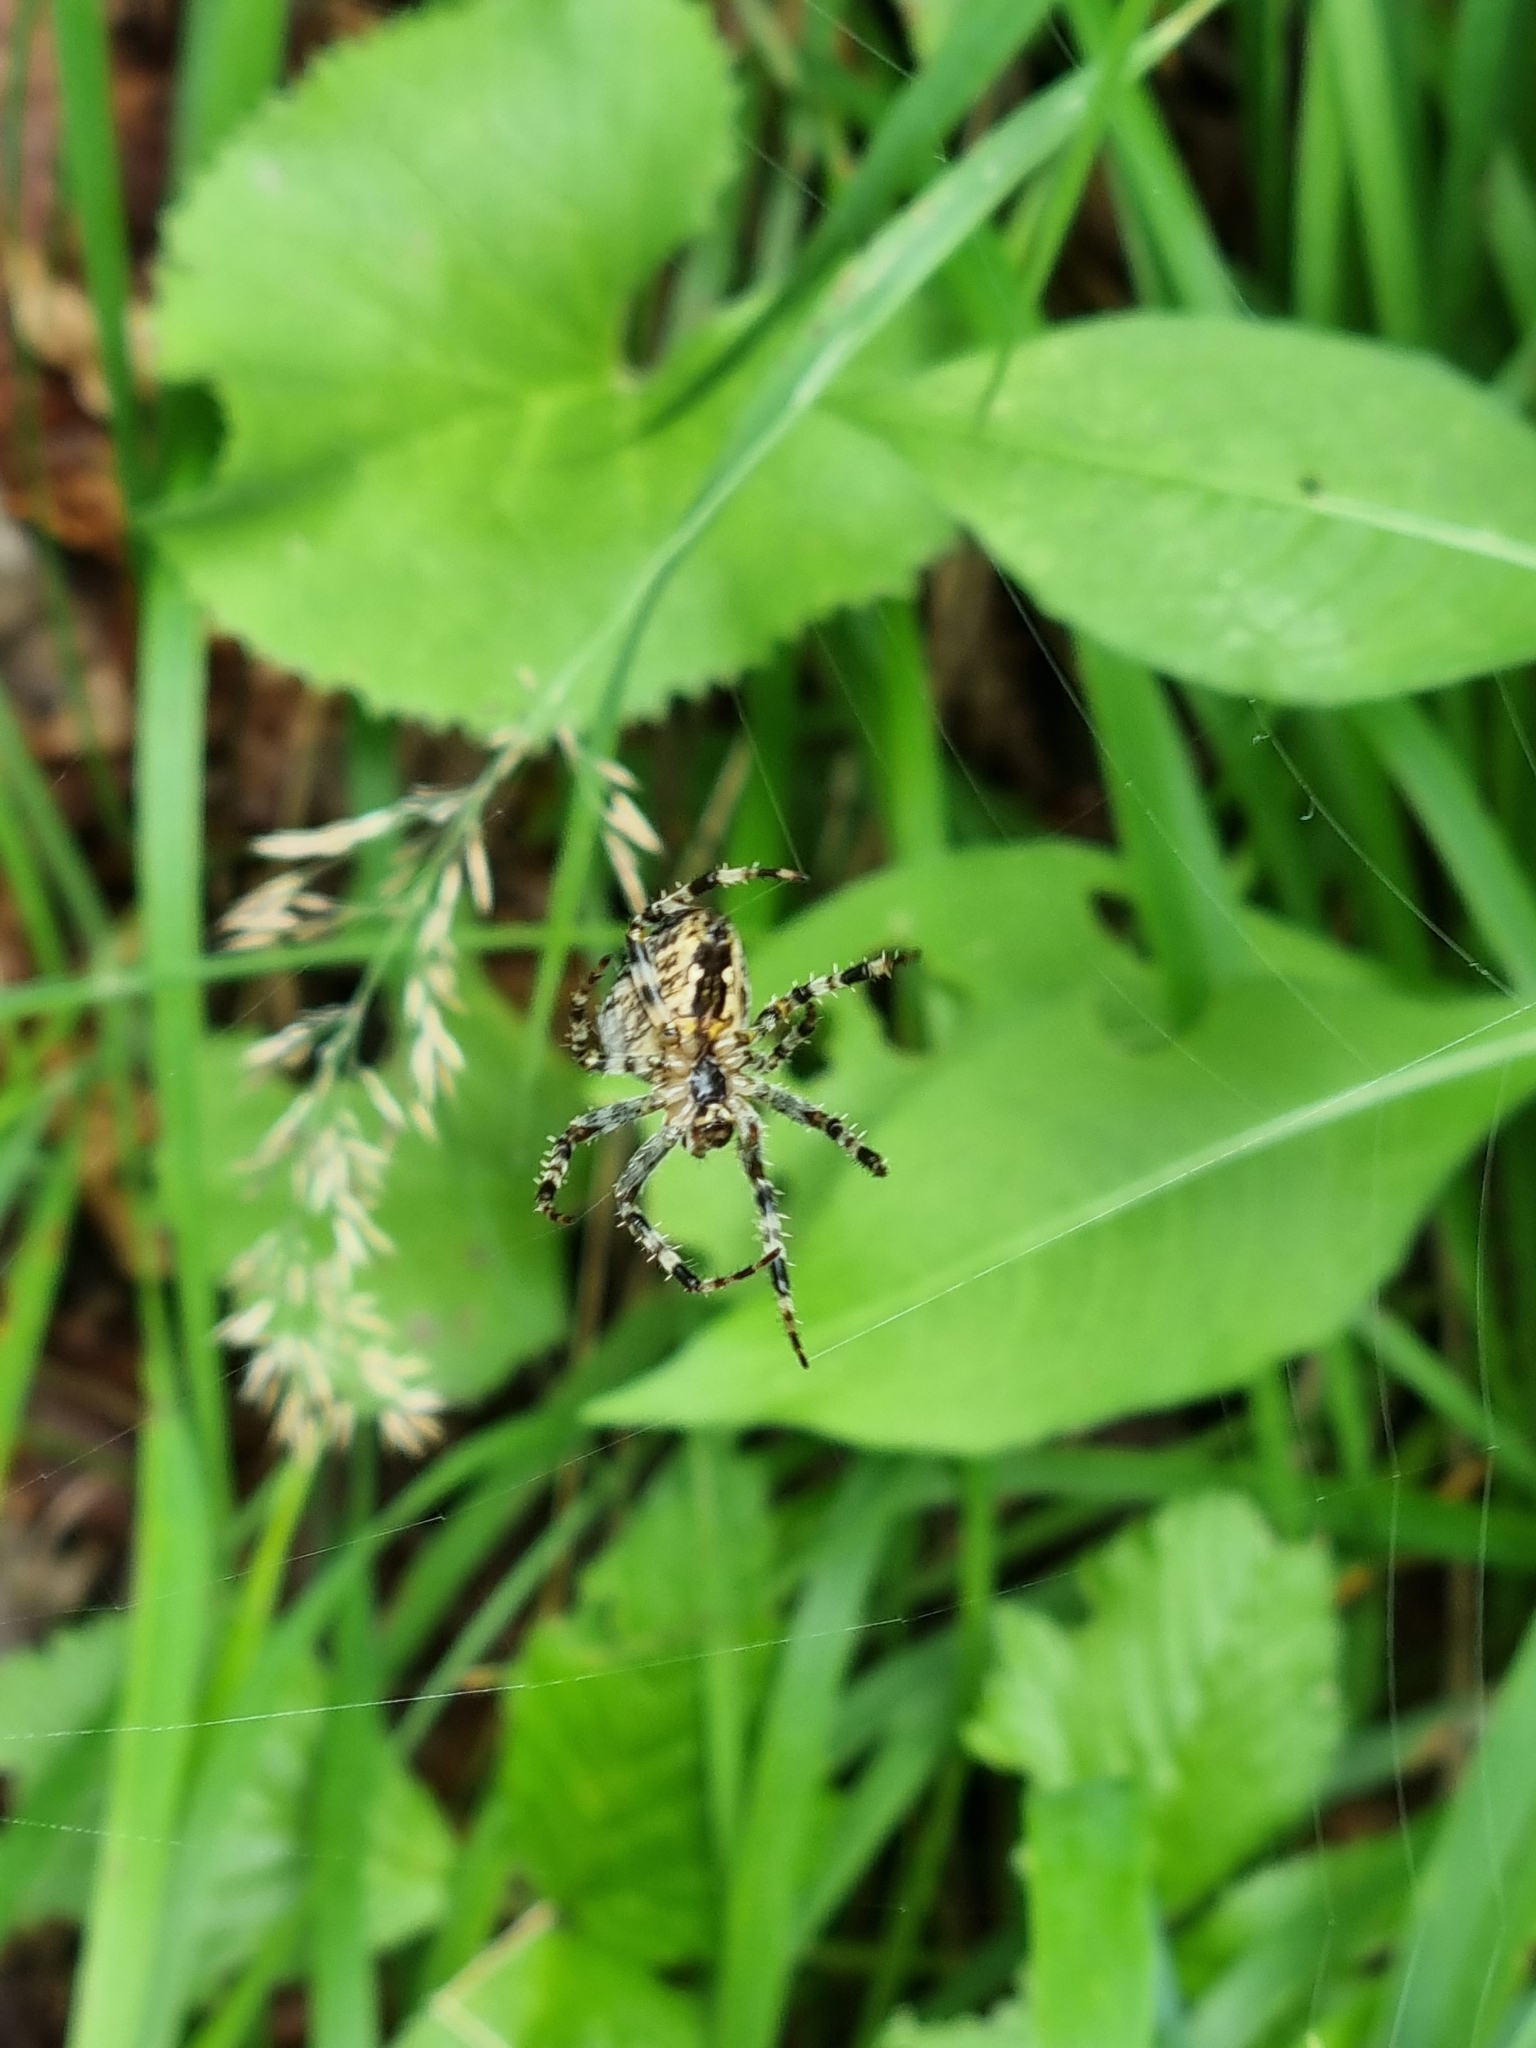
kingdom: Animalia
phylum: Arthropoda
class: Arachnida
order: Araneae
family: Araneidae
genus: Araneus
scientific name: Araneus diadematus
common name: Cross orbweaver
